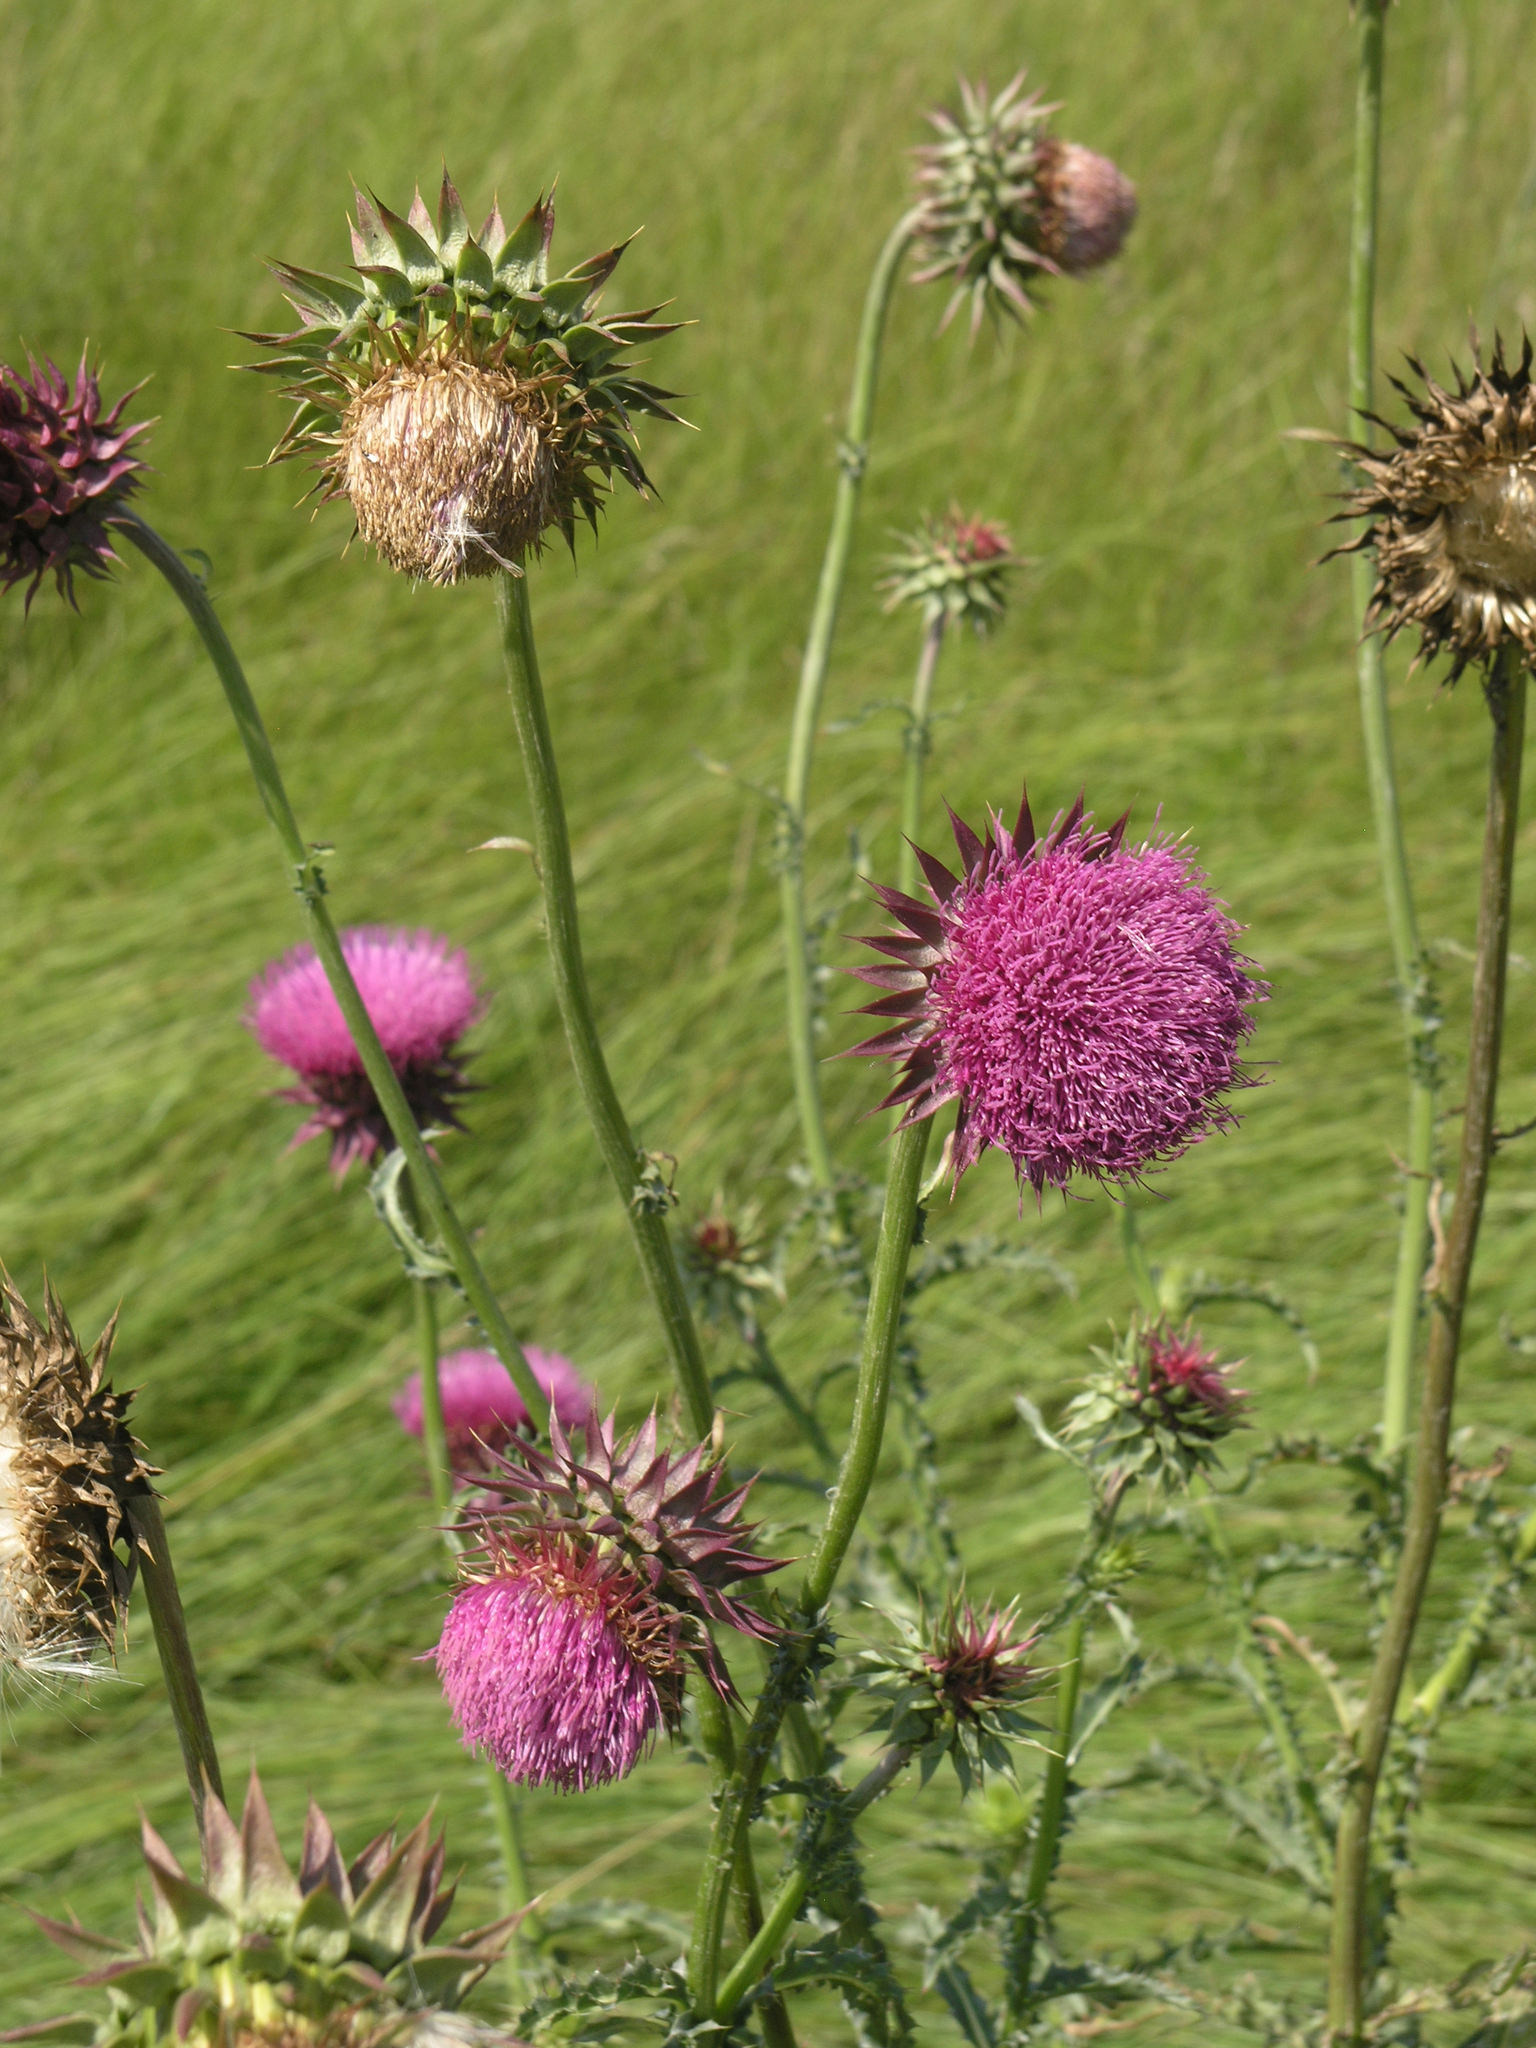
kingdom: Plantae
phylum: Tracheophyta
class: Magnoliopsida
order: Asterales
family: Asteraceae
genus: Carduus
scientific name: Carduus nutans
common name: Musk thistle
